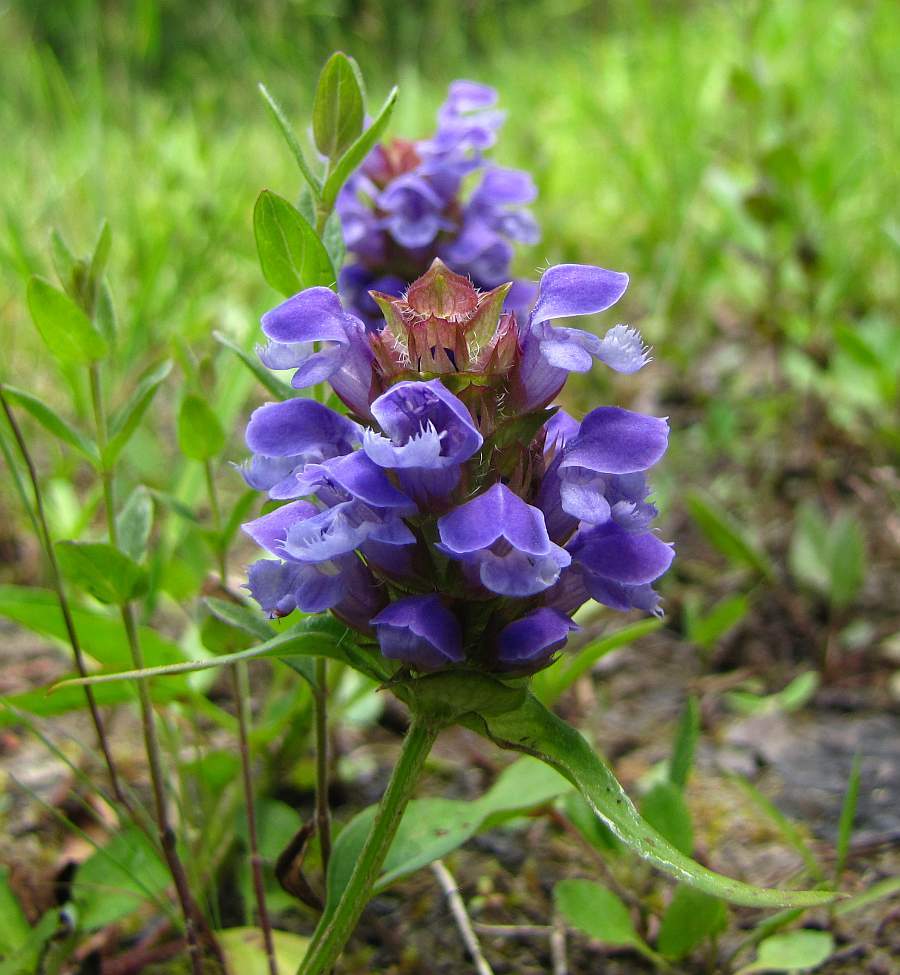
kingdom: Plantae
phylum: Tracheophyta
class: Magnoliopsida
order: Lamiales
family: Lamiaceae
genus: Prunella
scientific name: Prunella vulgaris
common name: Heal-all
